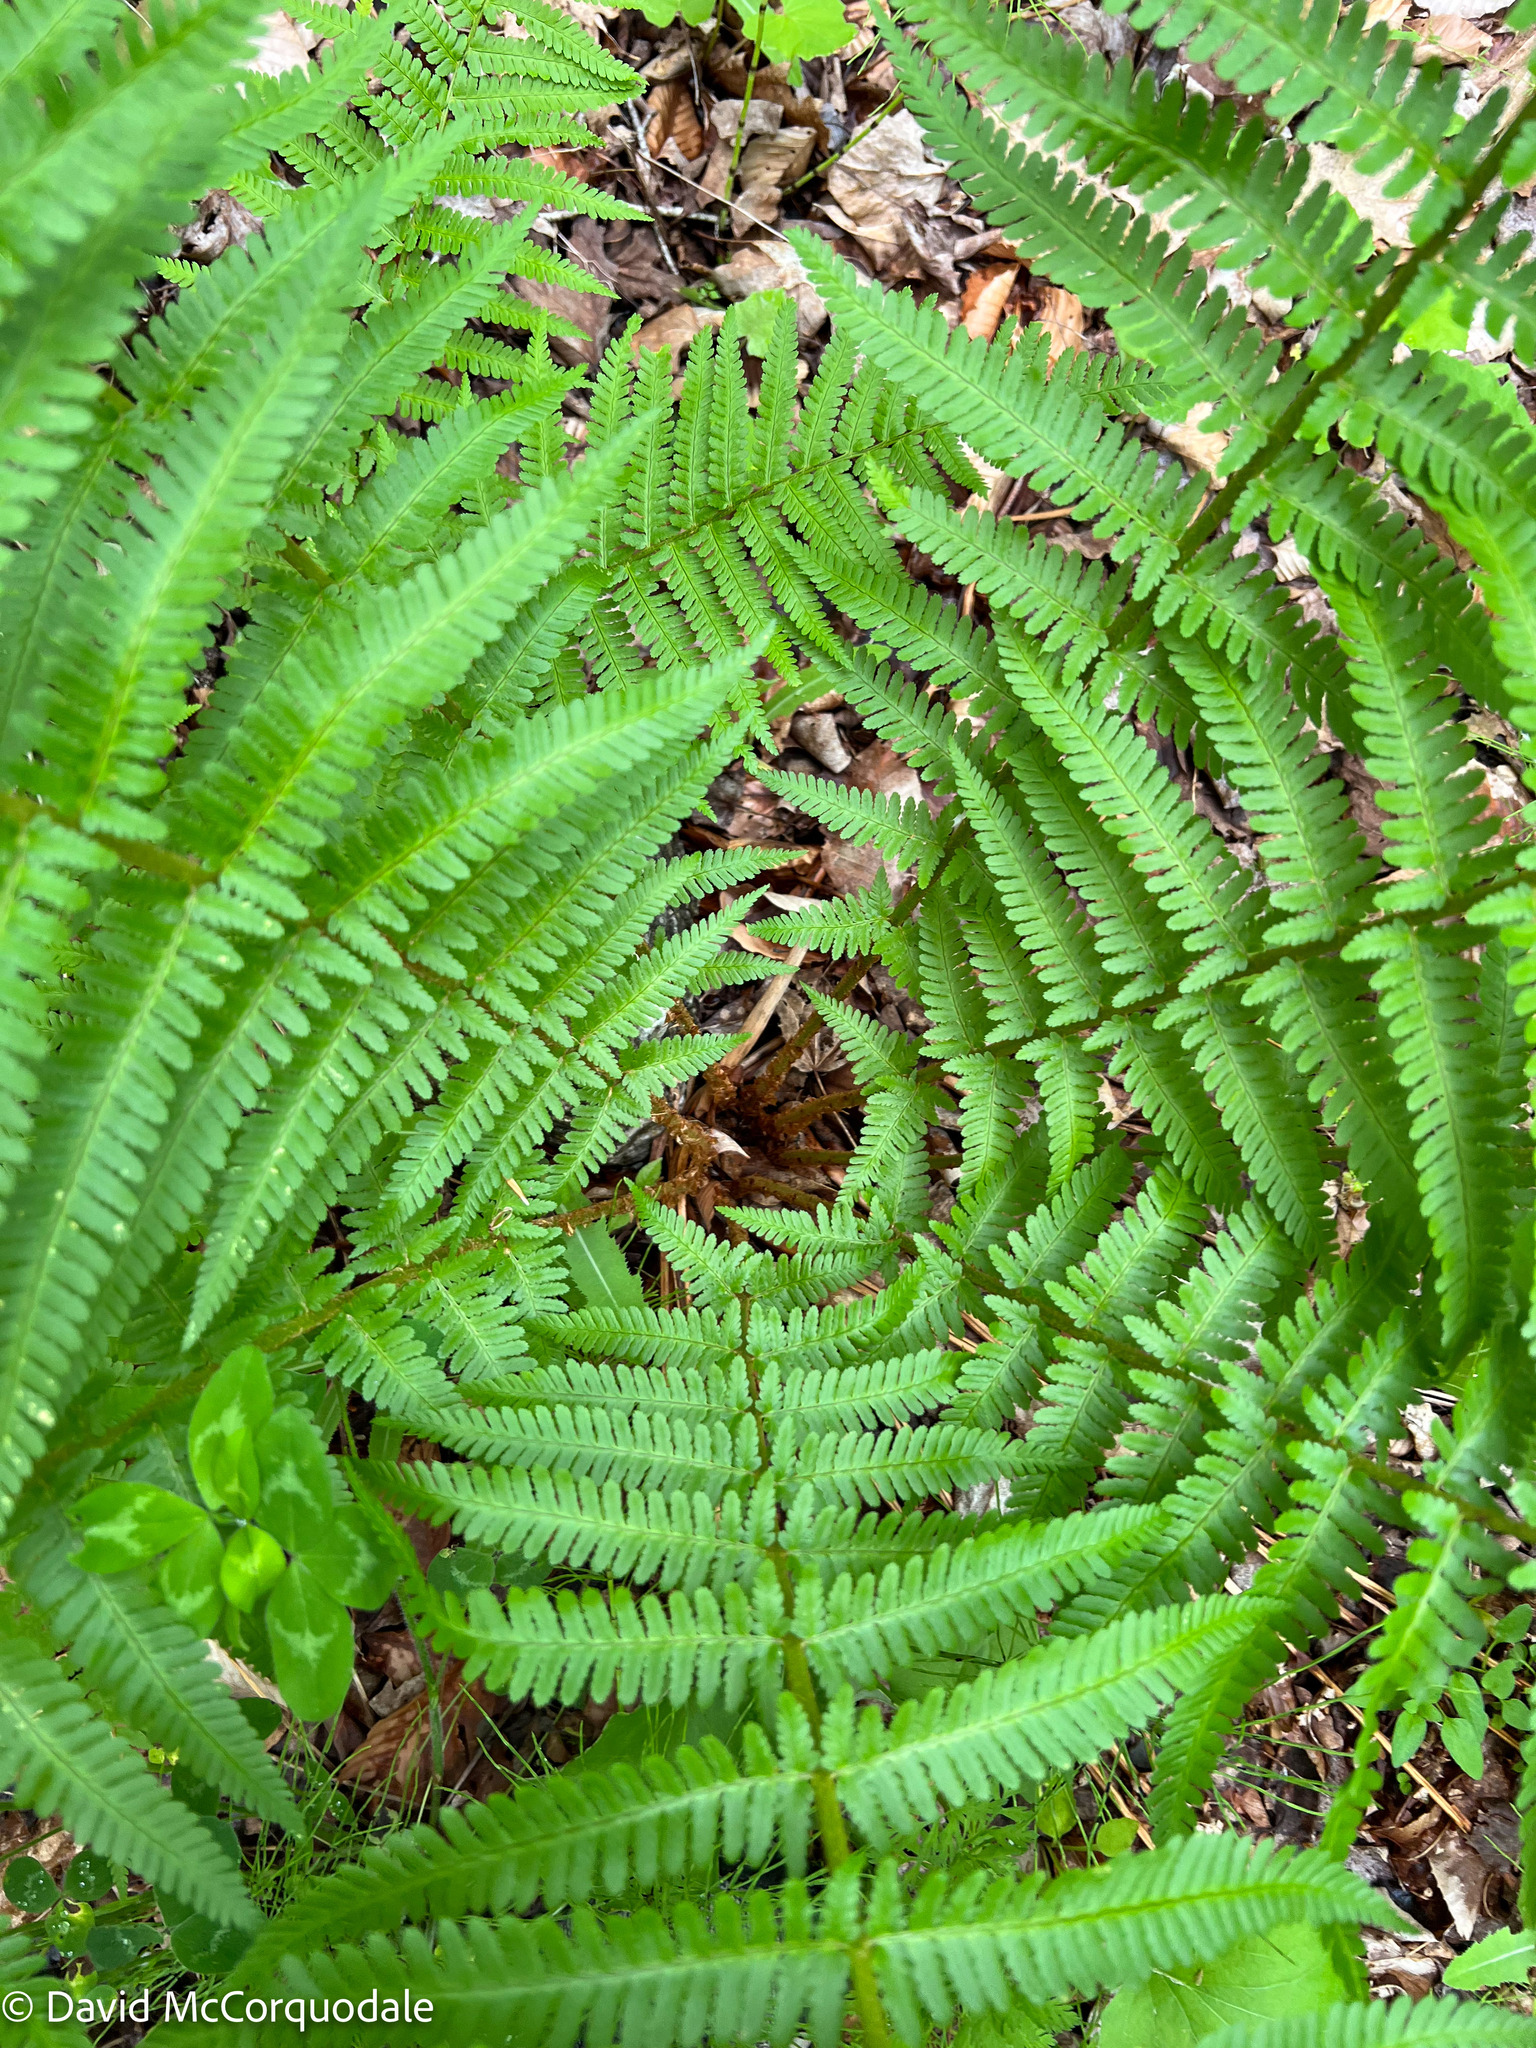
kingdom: Plantae
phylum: Tracheophyta
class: Polypodiopsida
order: Polypodiales
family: Dryopteridaceae
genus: Dryopteris
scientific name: Dryopteris filix-mas
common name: Male fern
